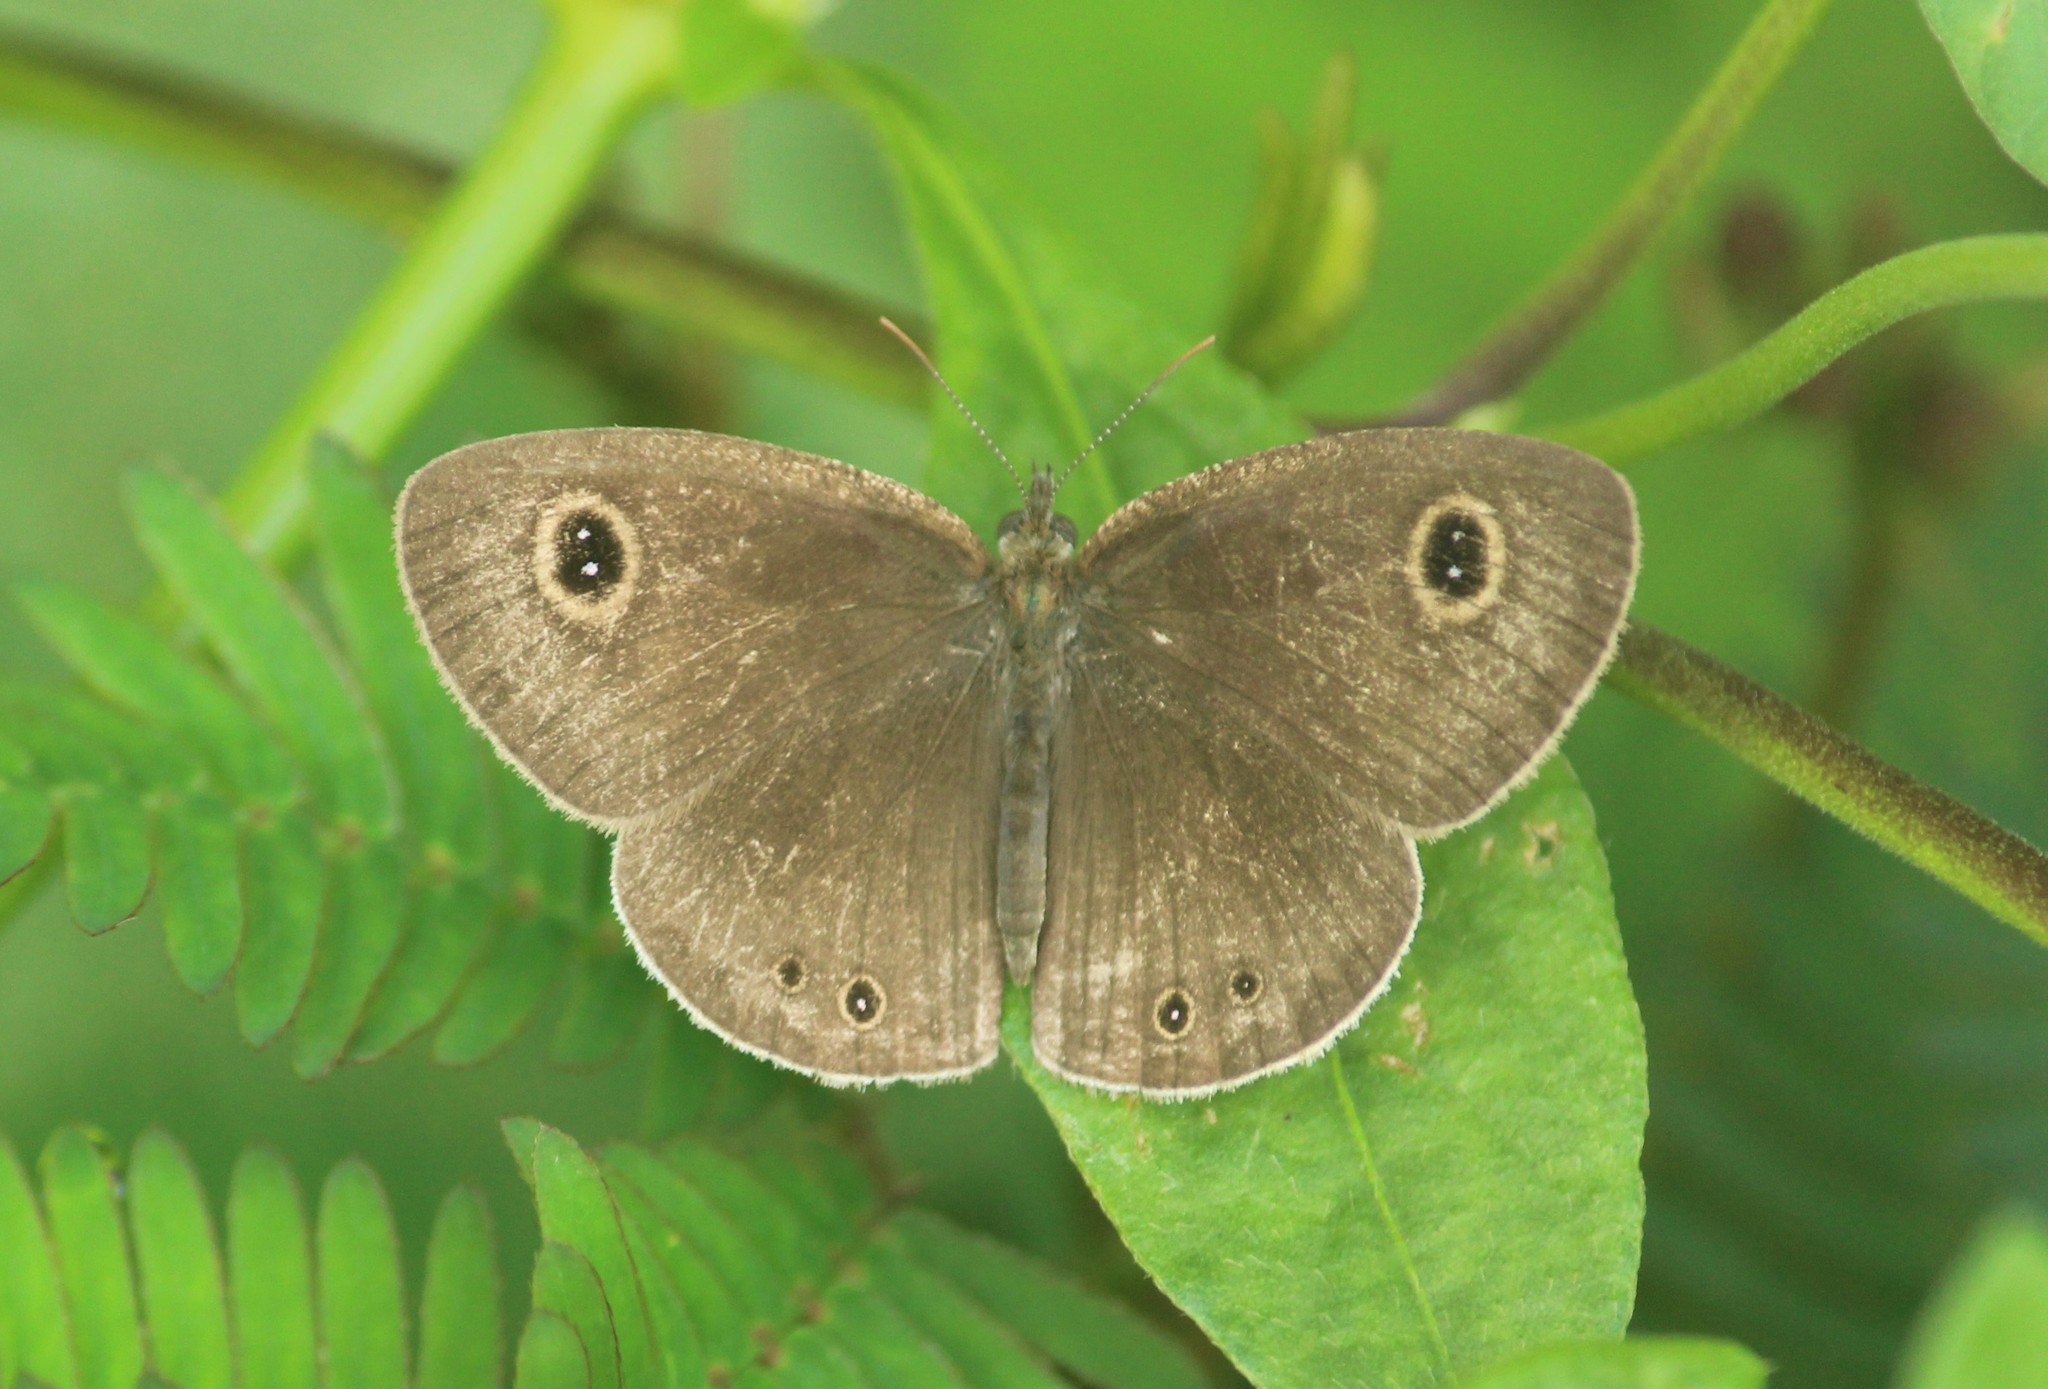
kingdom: Animalia
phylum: Arthropoda
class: Insecta
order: Lepidoptera
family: Nymphalidae
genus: Ypthima
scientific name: Ypthima huebneri
